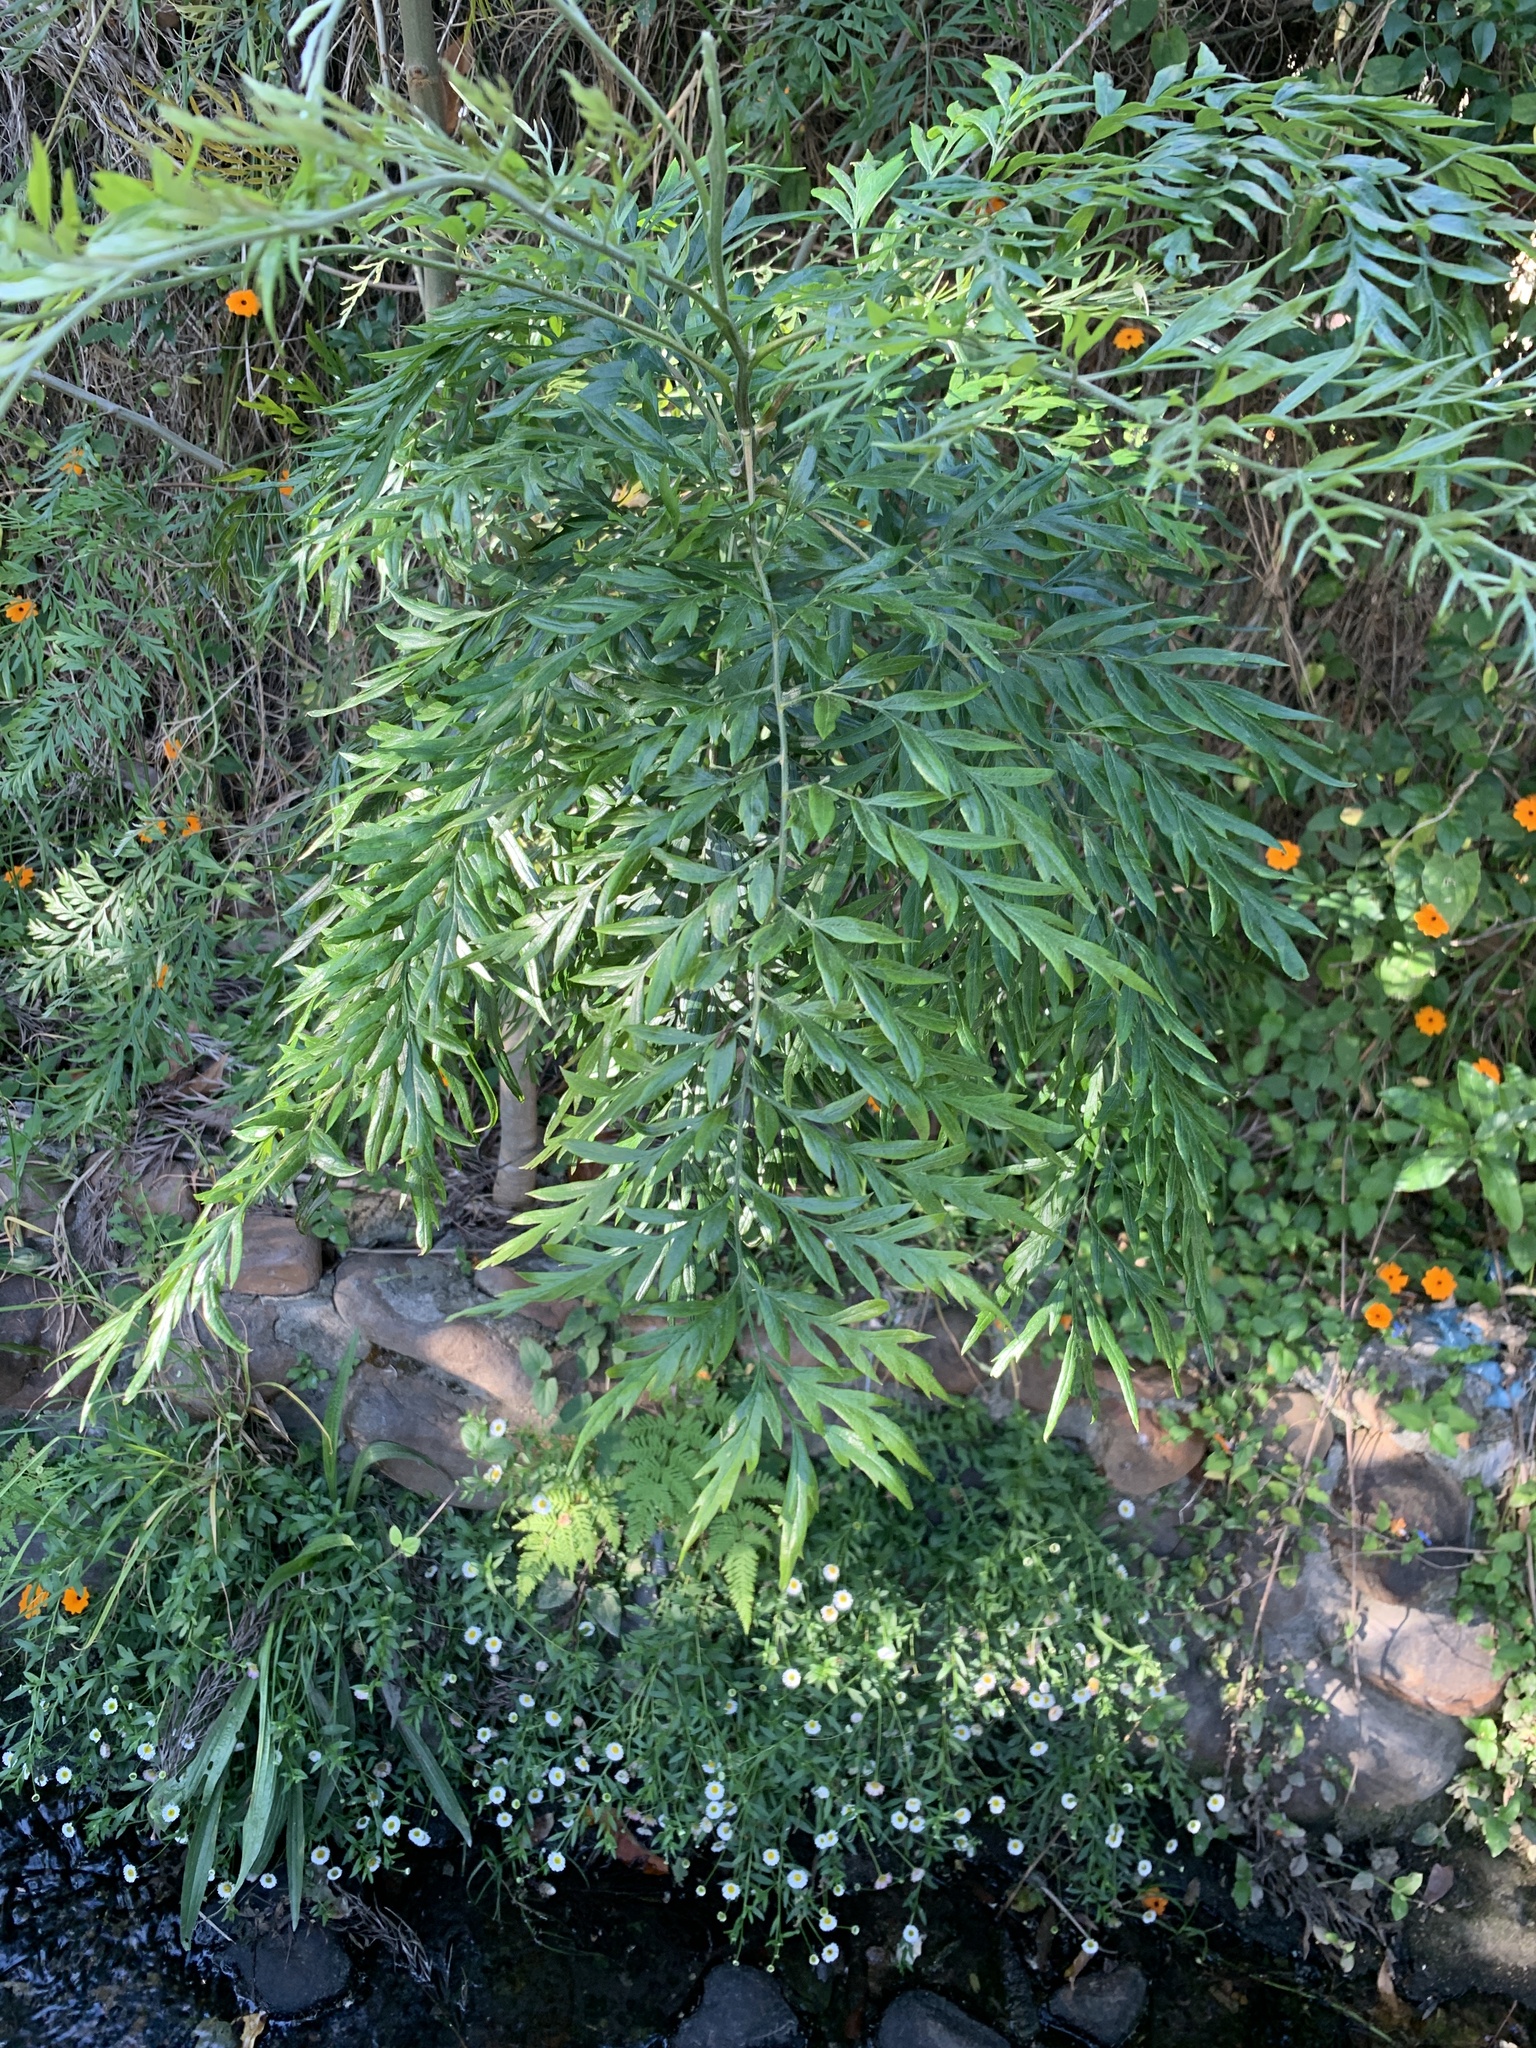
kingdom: Plantae
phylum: Tracheophyta
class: Magnoliopsida
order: Proteales
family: Proteaceae
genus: Grevillea
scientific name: Grevillea robusta
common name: Silkoak
